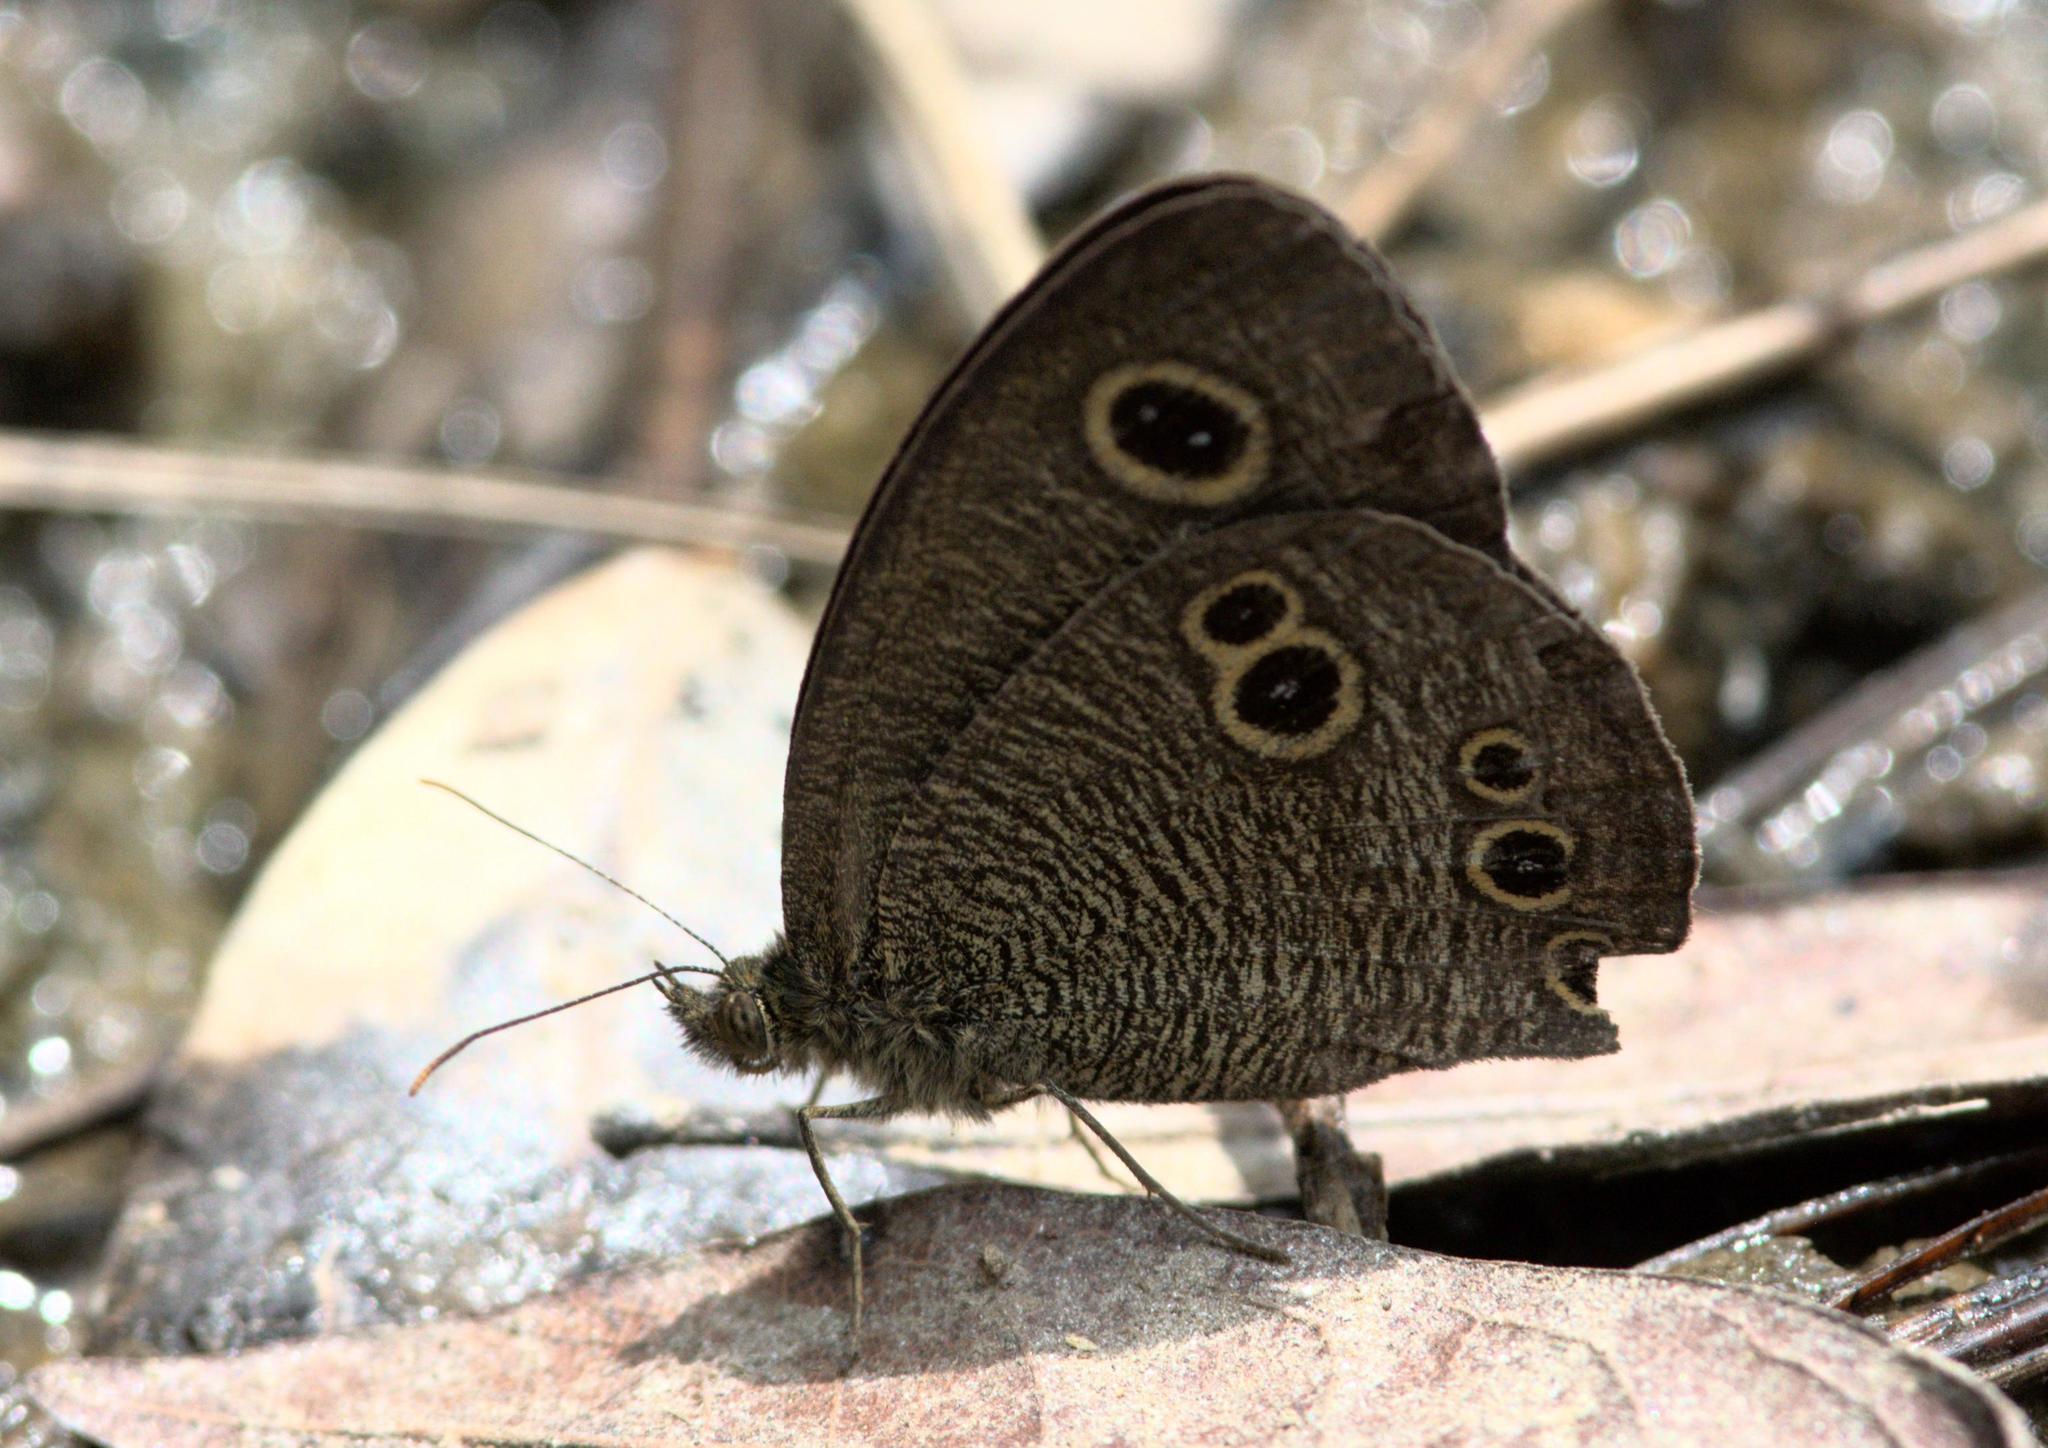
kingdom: Animalia
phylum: Arthropoda
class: Insecta
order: Lepidoptera
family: Nymphalidae
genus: Ypthima
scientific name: Ypthima nikaea
